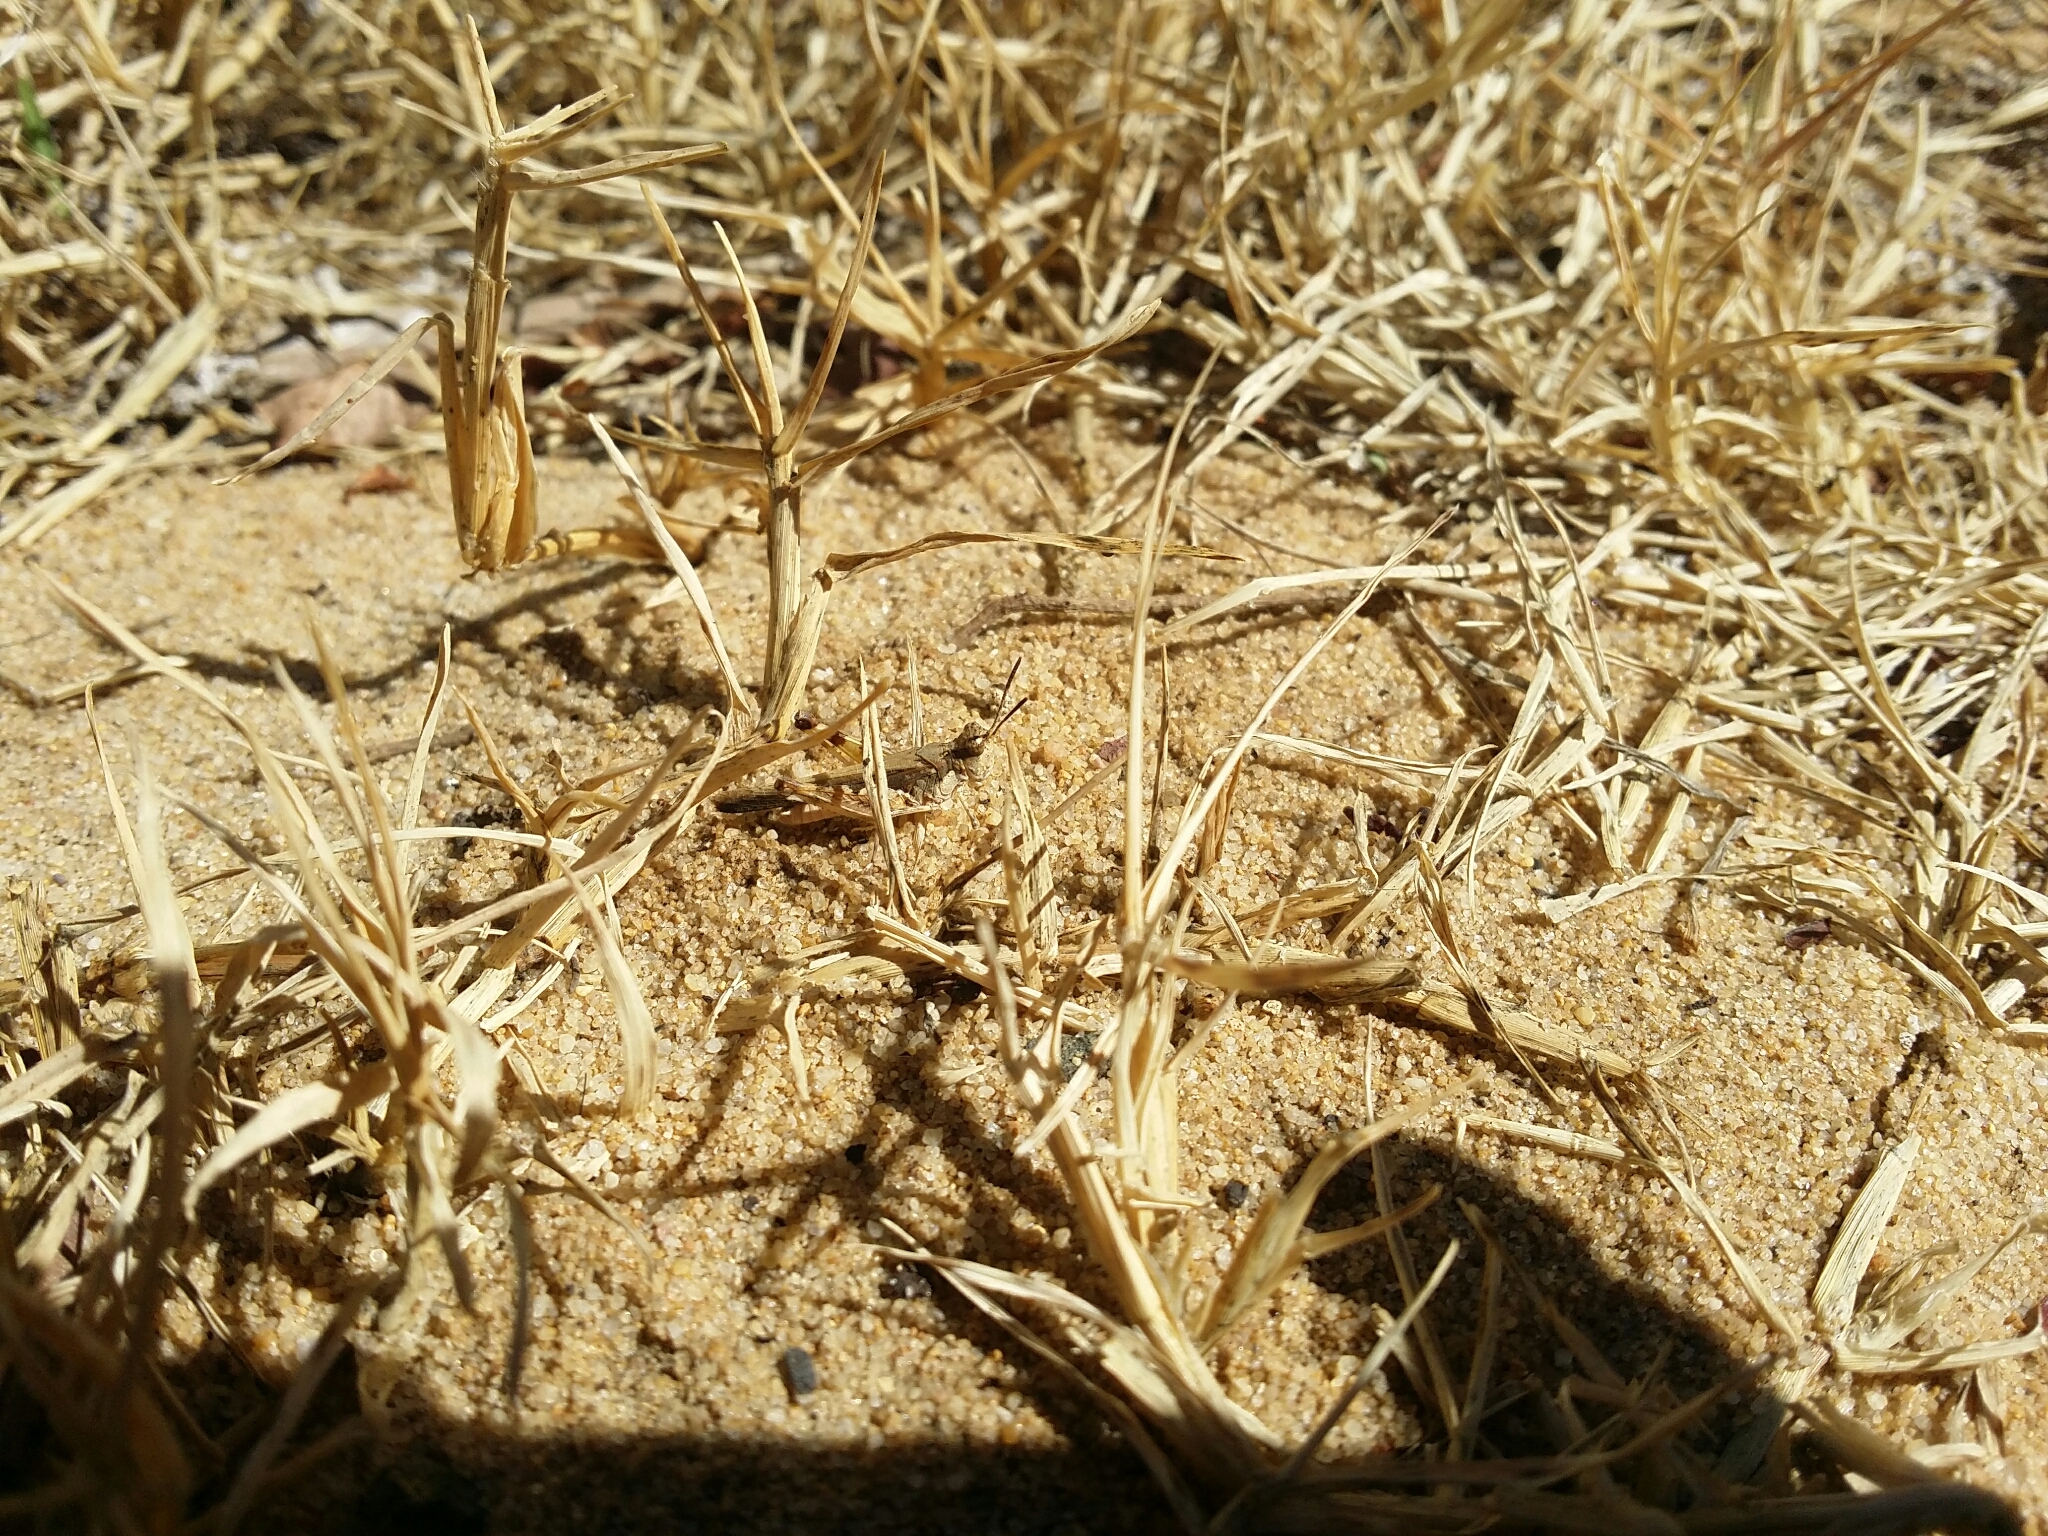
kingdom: Animalia
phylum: Arthropoda
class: Insecta
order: Orthoptera
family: Acrididae
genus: Pycnostictus
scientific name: Pycnostictus seriatus
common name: Common bandwing
